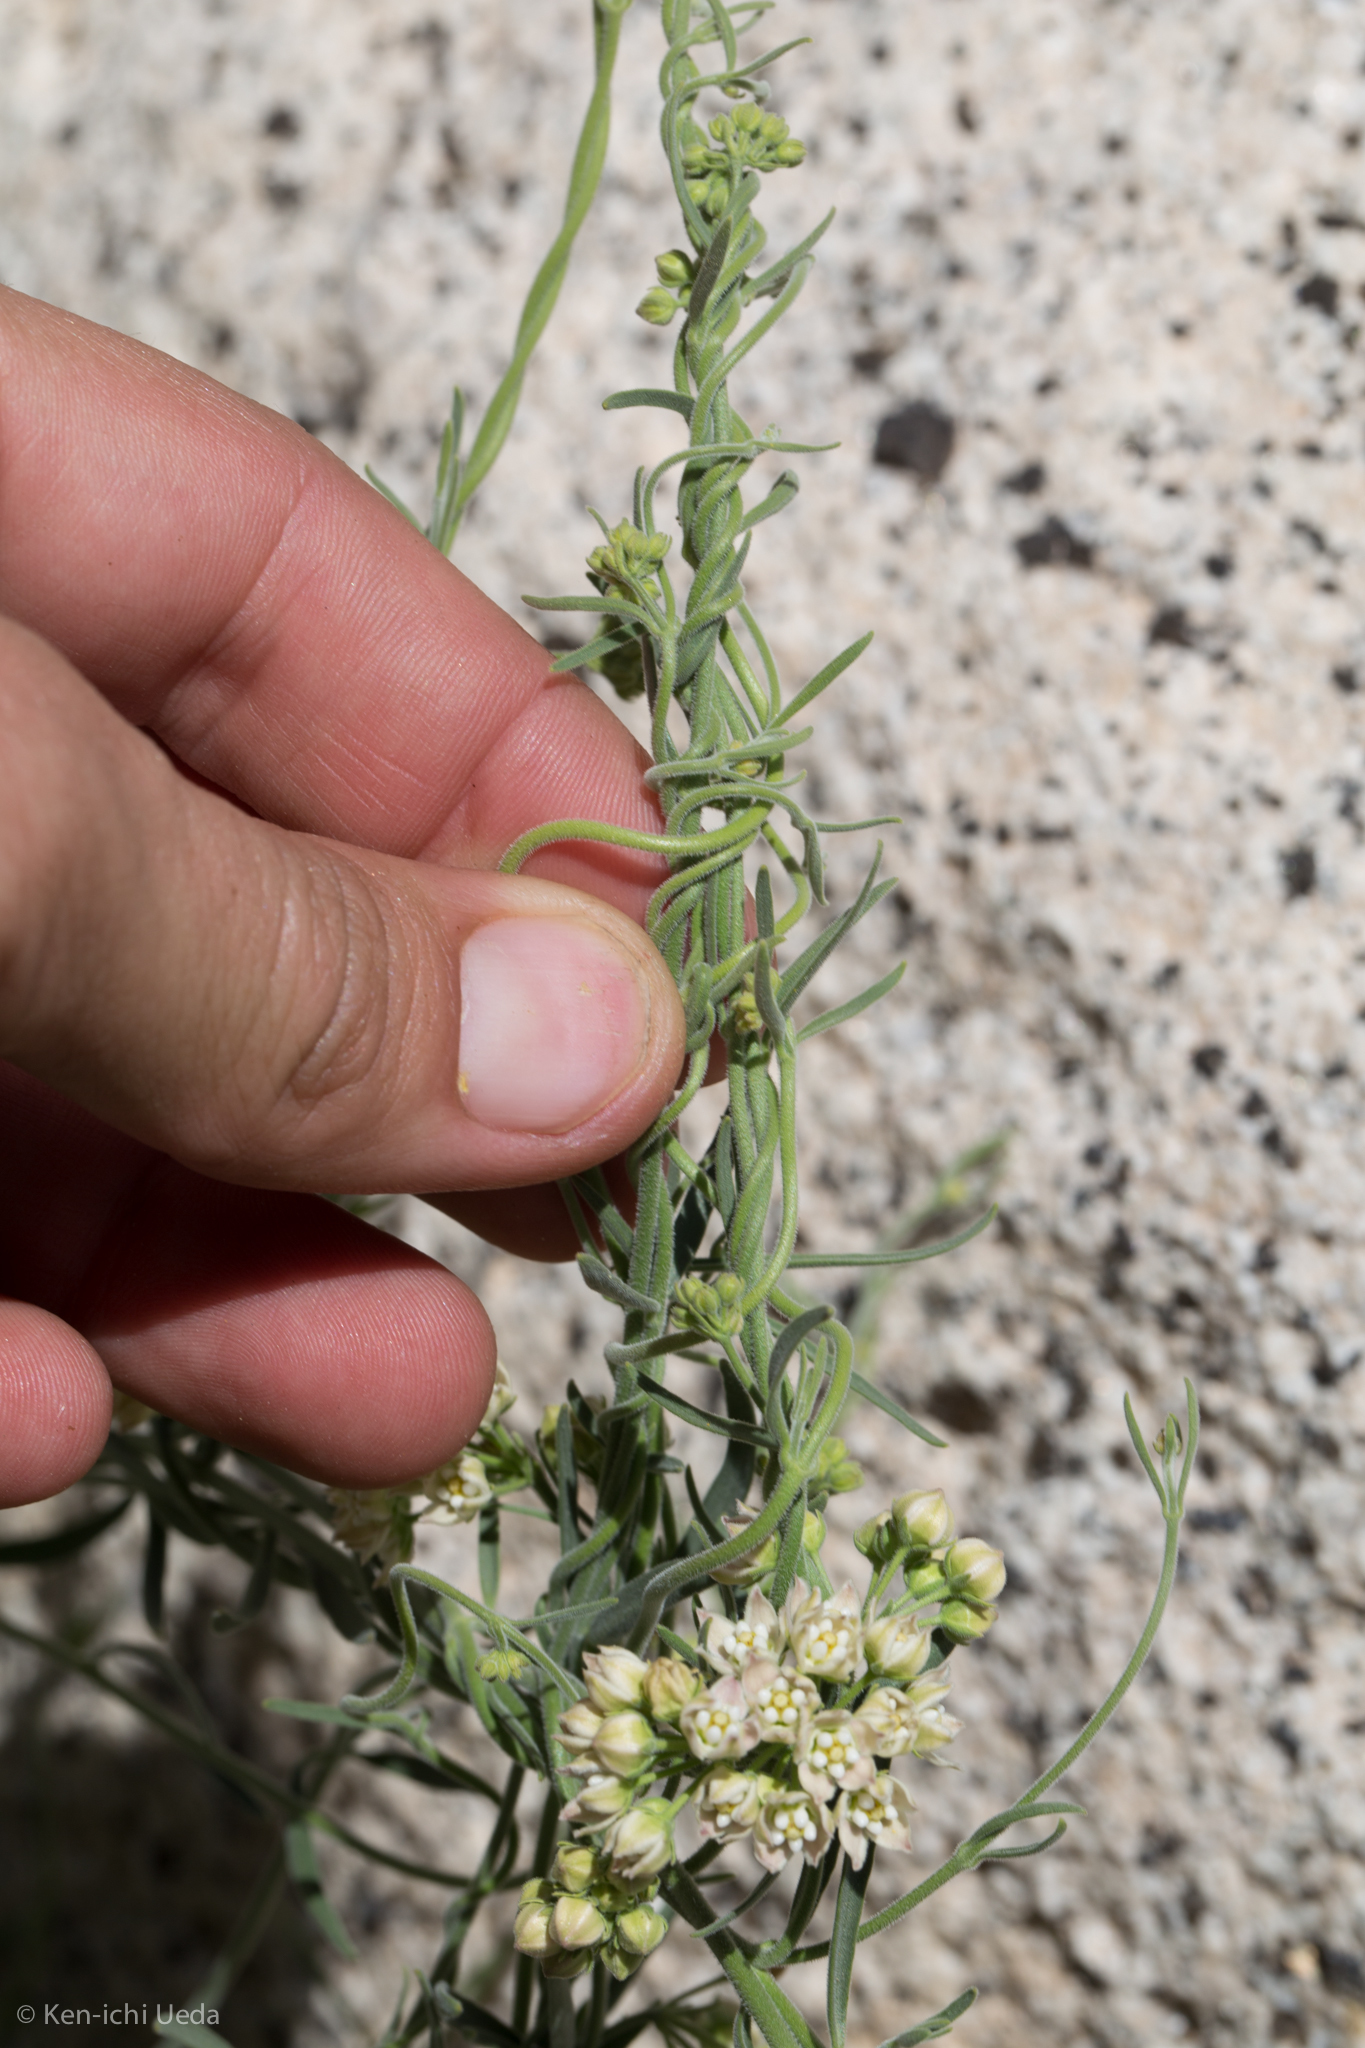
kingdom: Plantae
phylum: Tracheophyta
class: Magnoliopsida
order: Gentianales
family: Apocynaceae
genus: Funastrum
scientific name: Funastrum hirtellum
